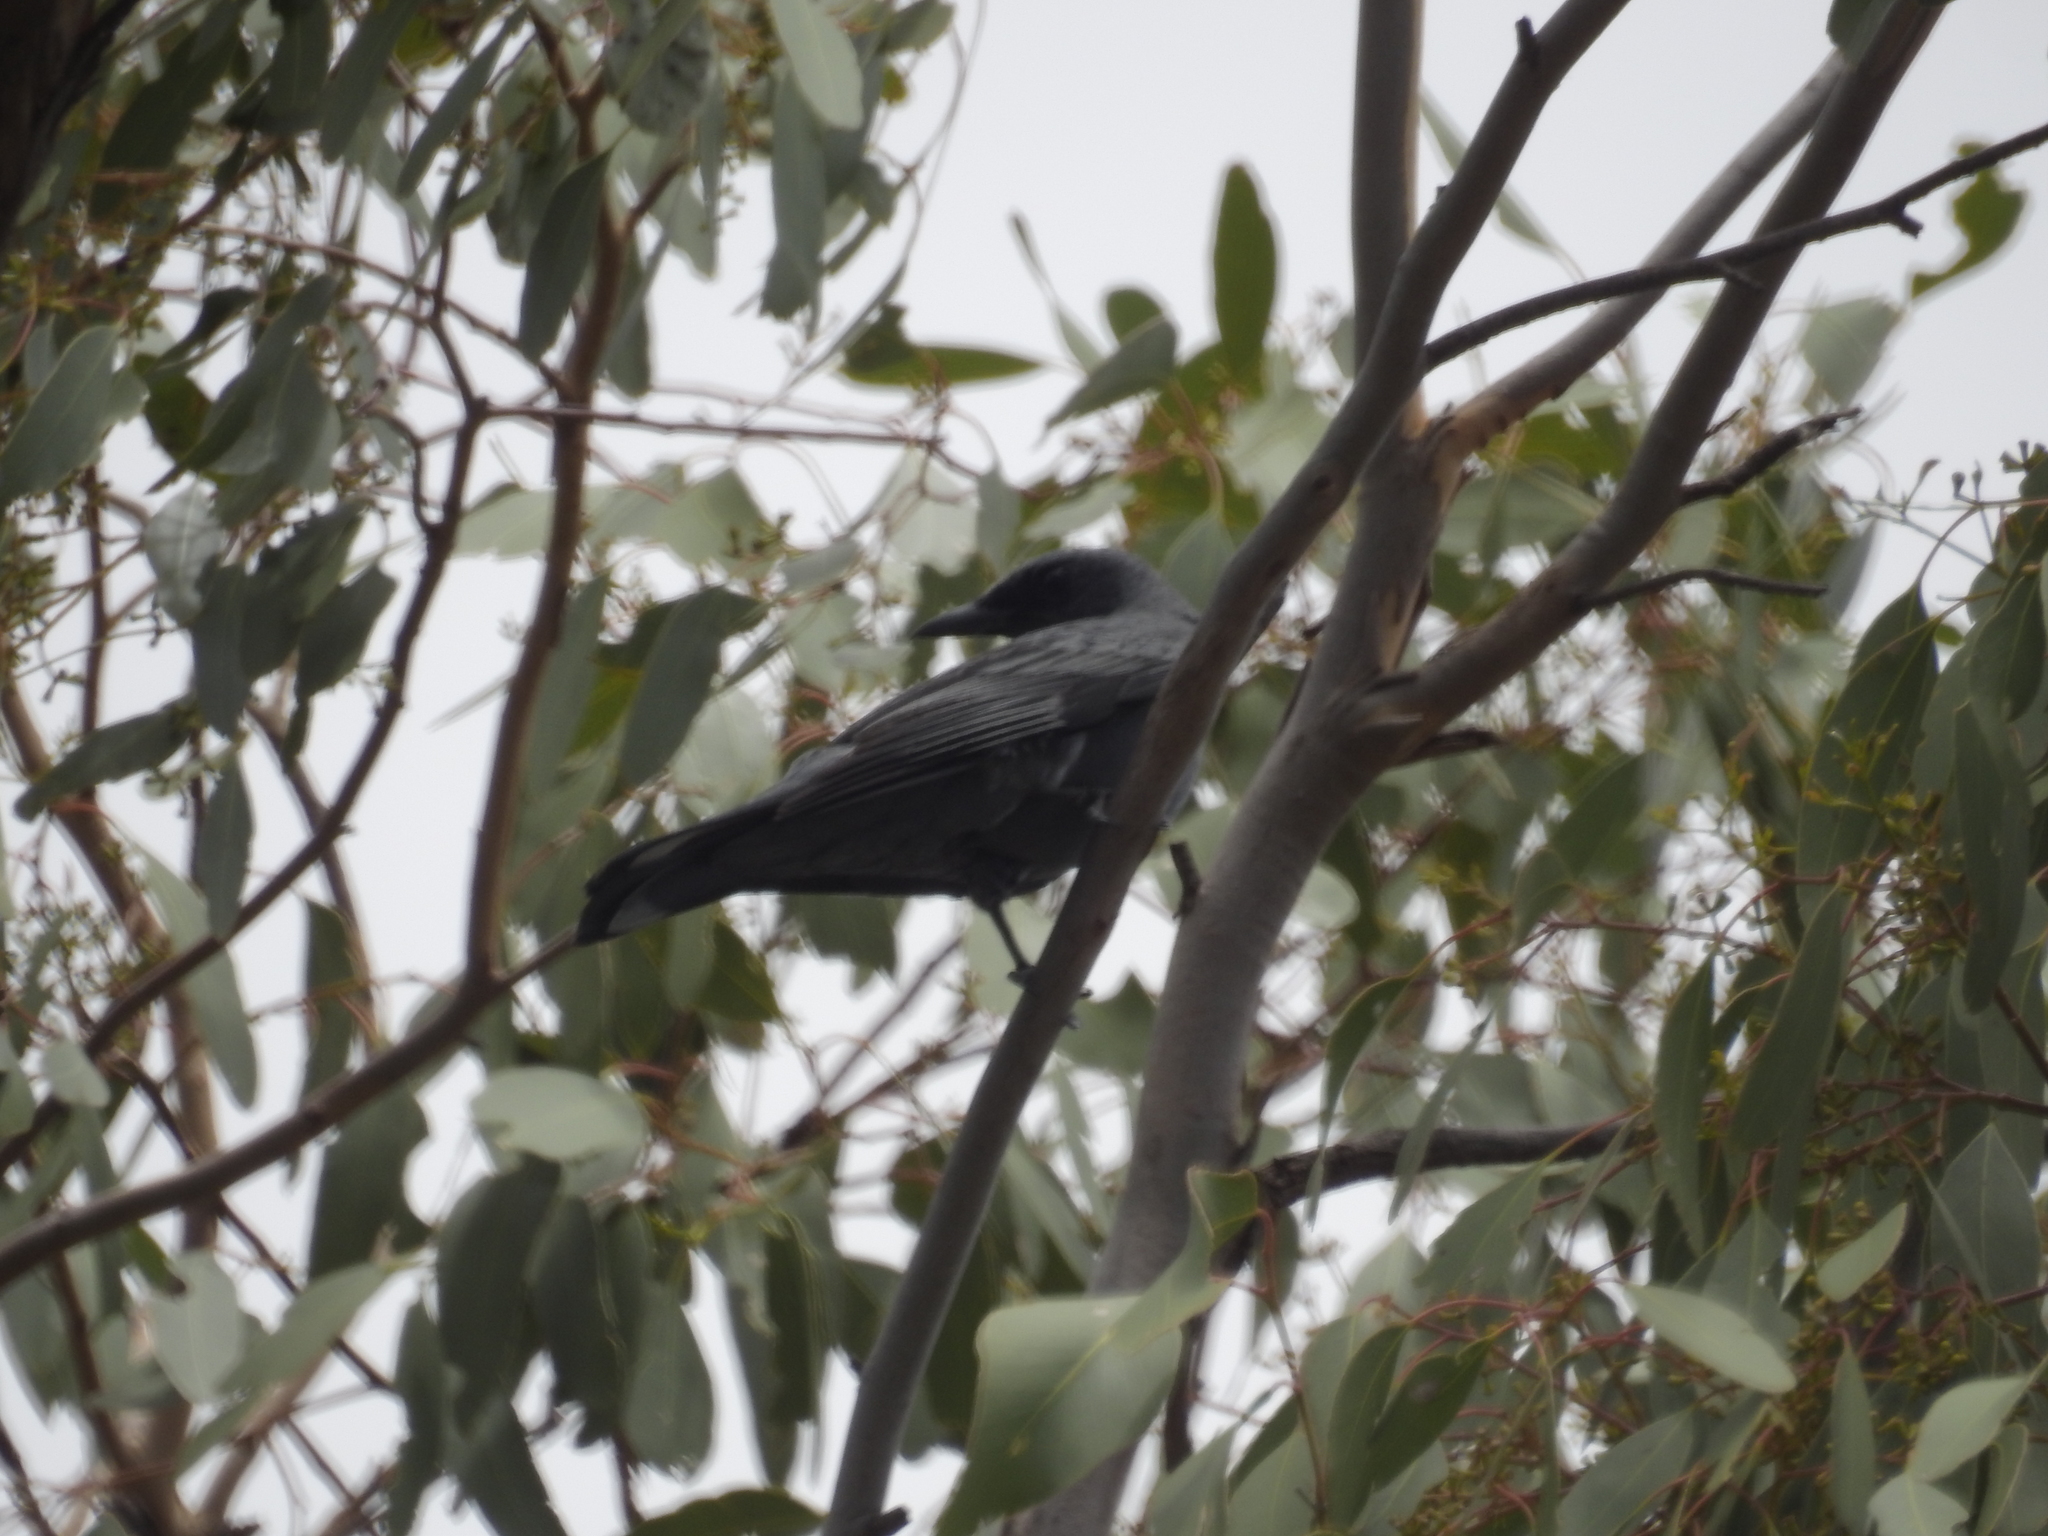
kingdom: Animalia
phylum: Chordata
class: Aves
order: Passeriformes
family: Campephagidae
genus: Edolisoma
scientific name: Edolisoma tenuirostre
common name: Common cicadabird
